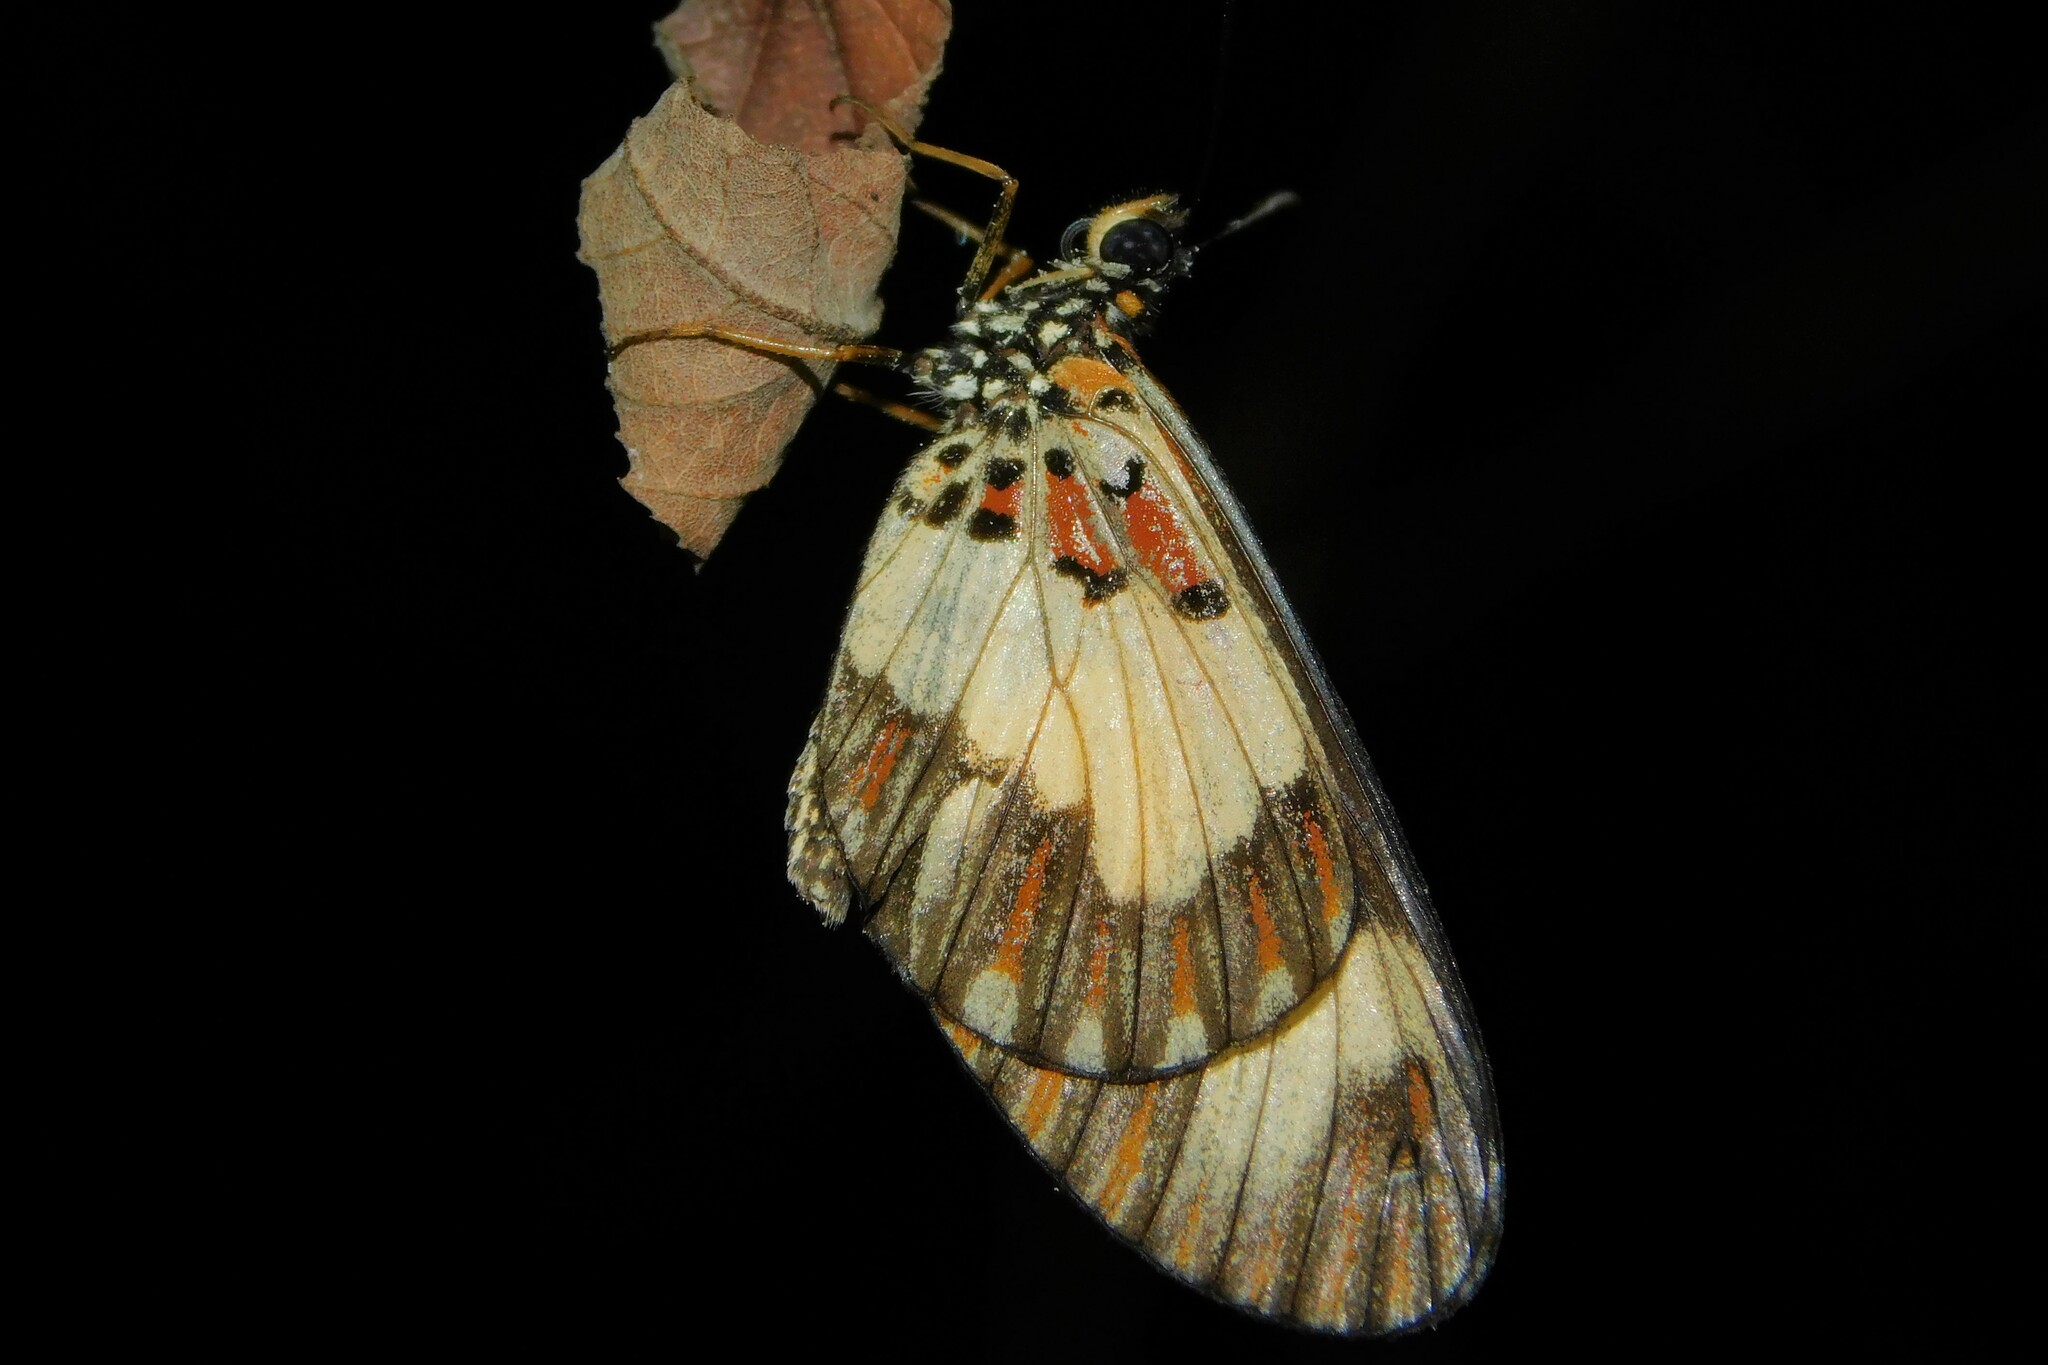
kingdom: Animalia
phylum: Arthropoda
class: Insecta
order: Lepidoptera
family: Nymphalidae
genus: Acraea
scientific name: Acraea
